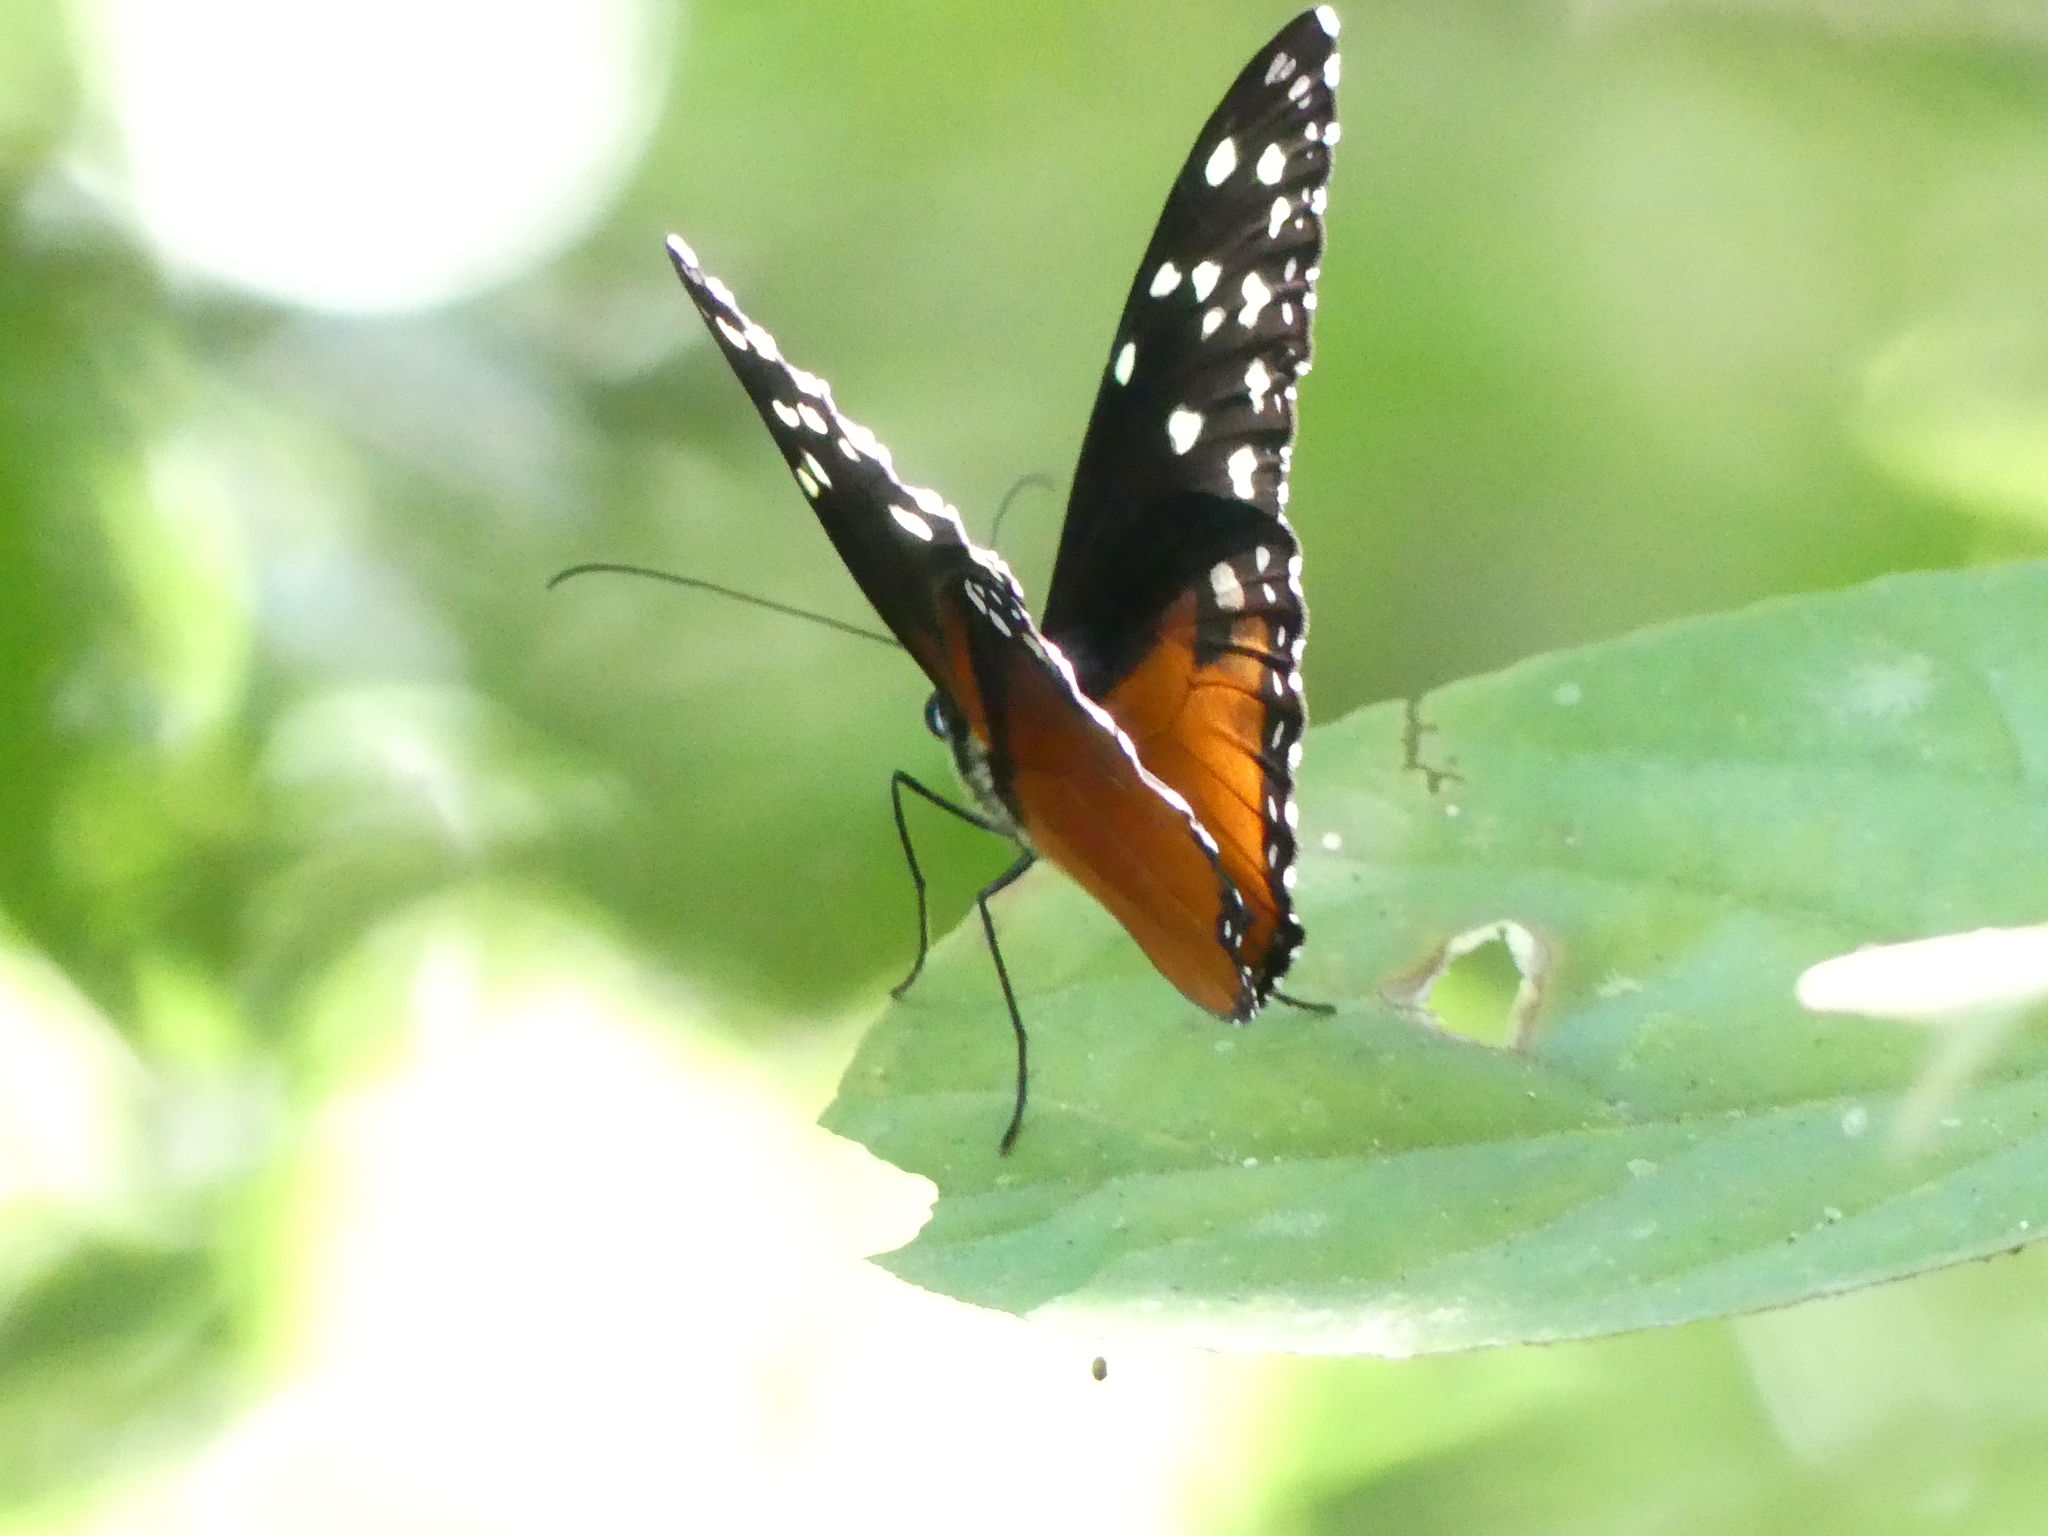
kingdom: Animalia
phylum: Arthropoda
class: Insecta
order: Lepidoptera
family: Nymphalidae
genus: Tithorea
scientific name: Tithorea tarricina
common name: Cream-spotted tigerwing
